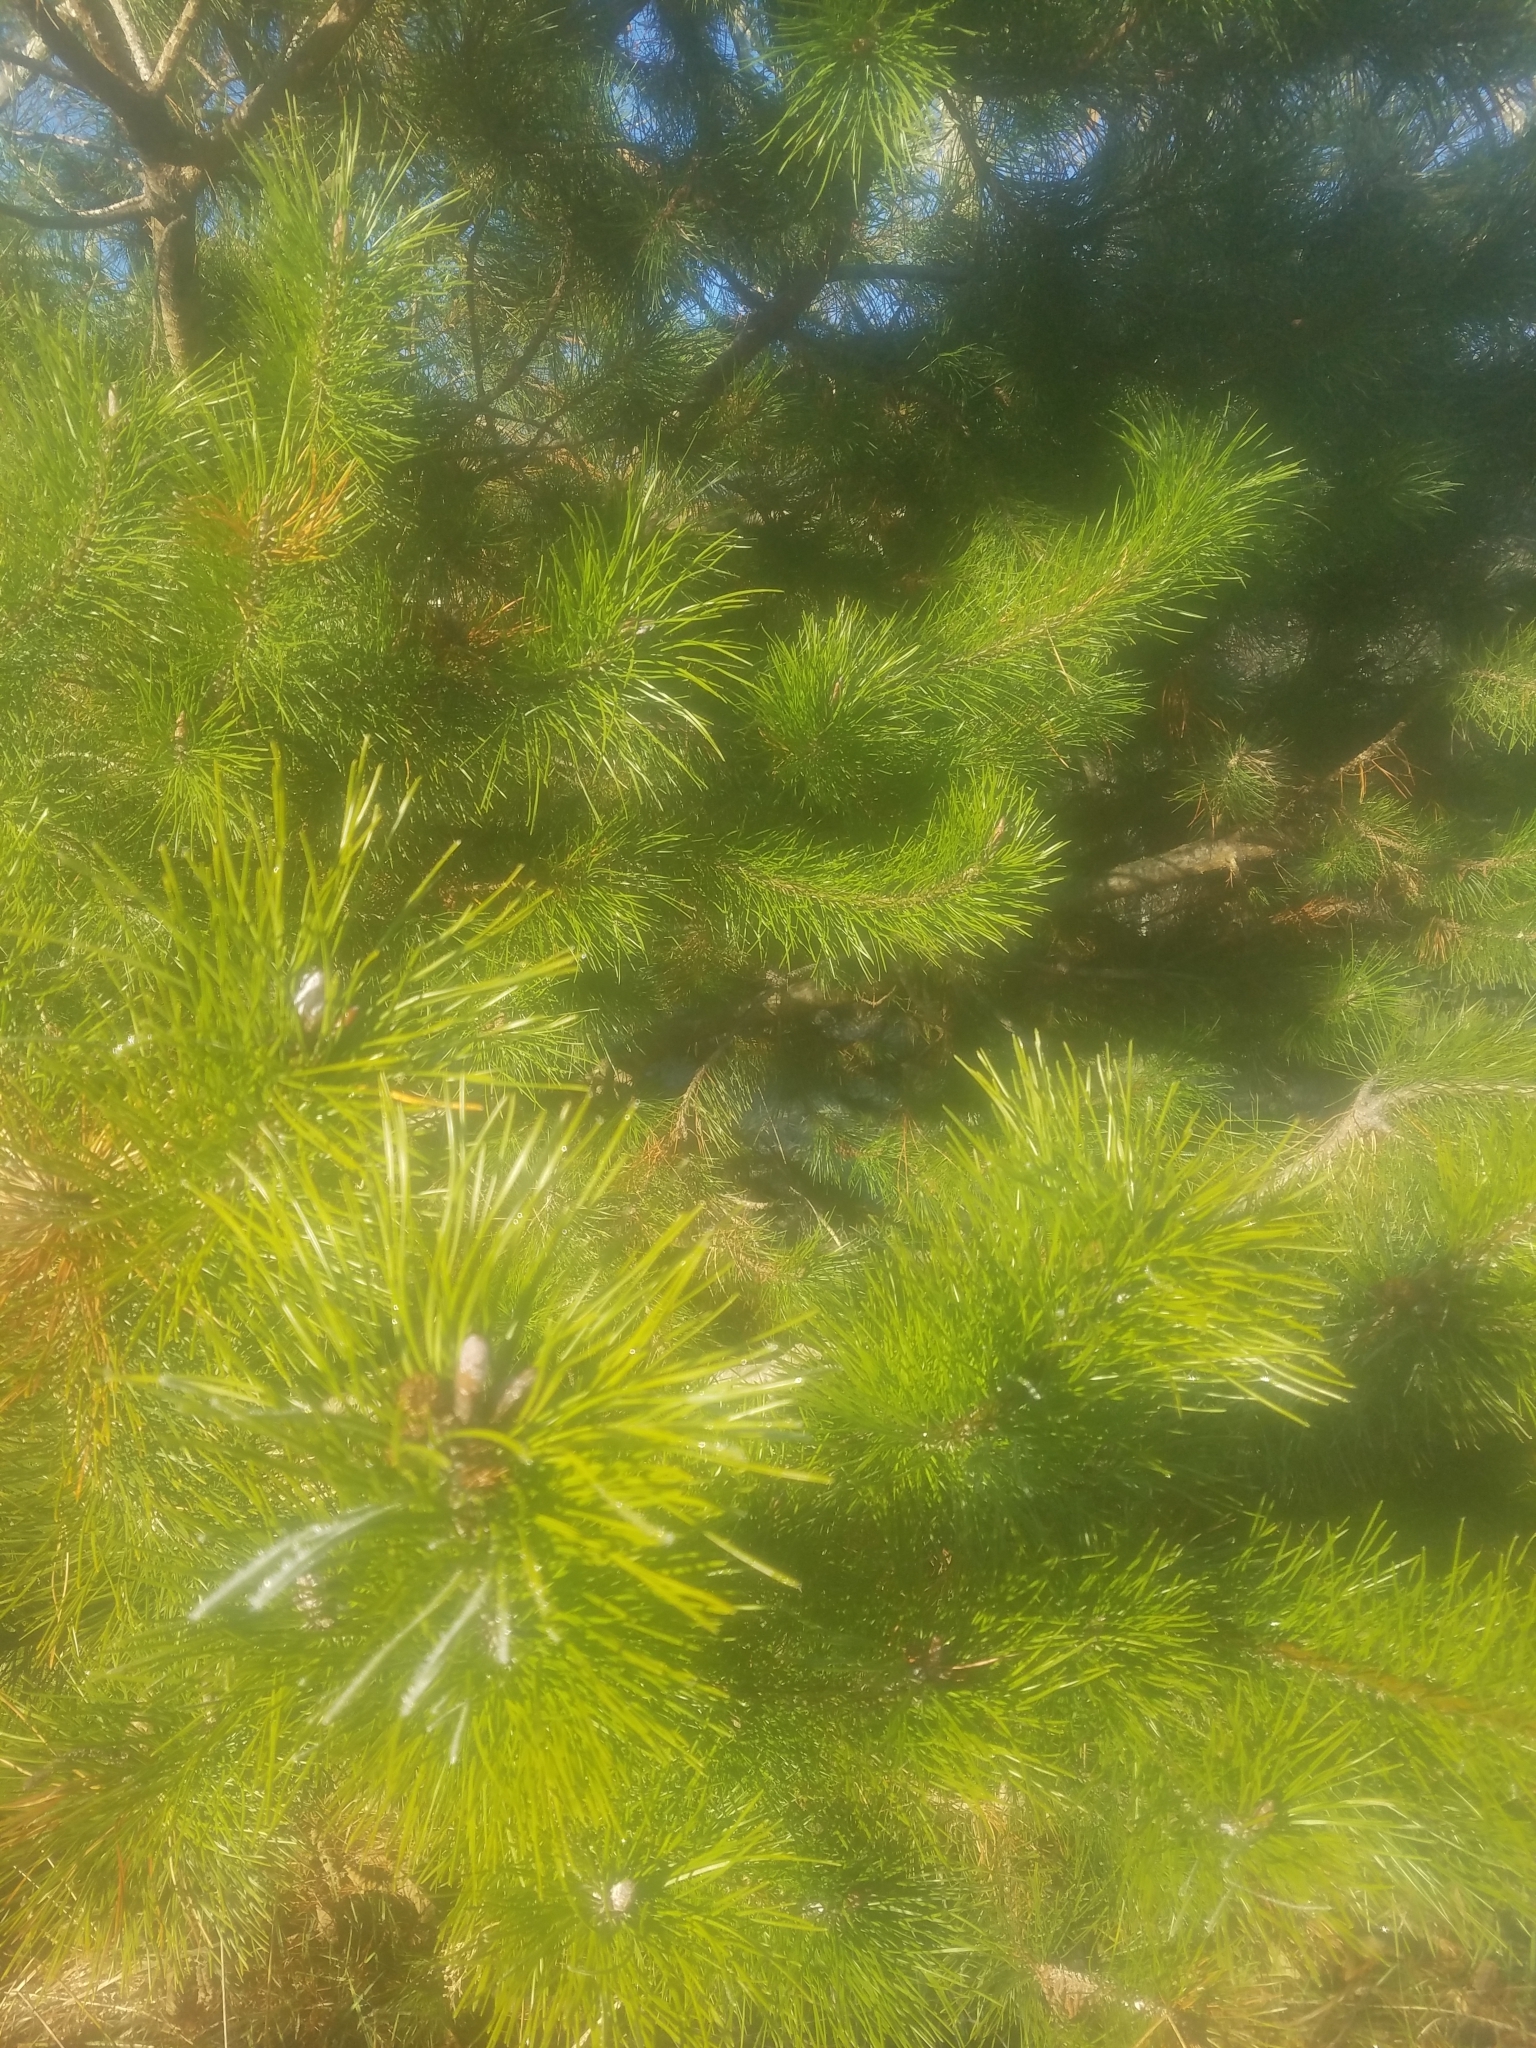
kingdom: Plantae
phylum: Tracheophyta
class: Pinopsida
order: Pinales
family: Pinaceae
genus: Pinus
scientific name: Pinus contorta
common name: Lodgepole pine
